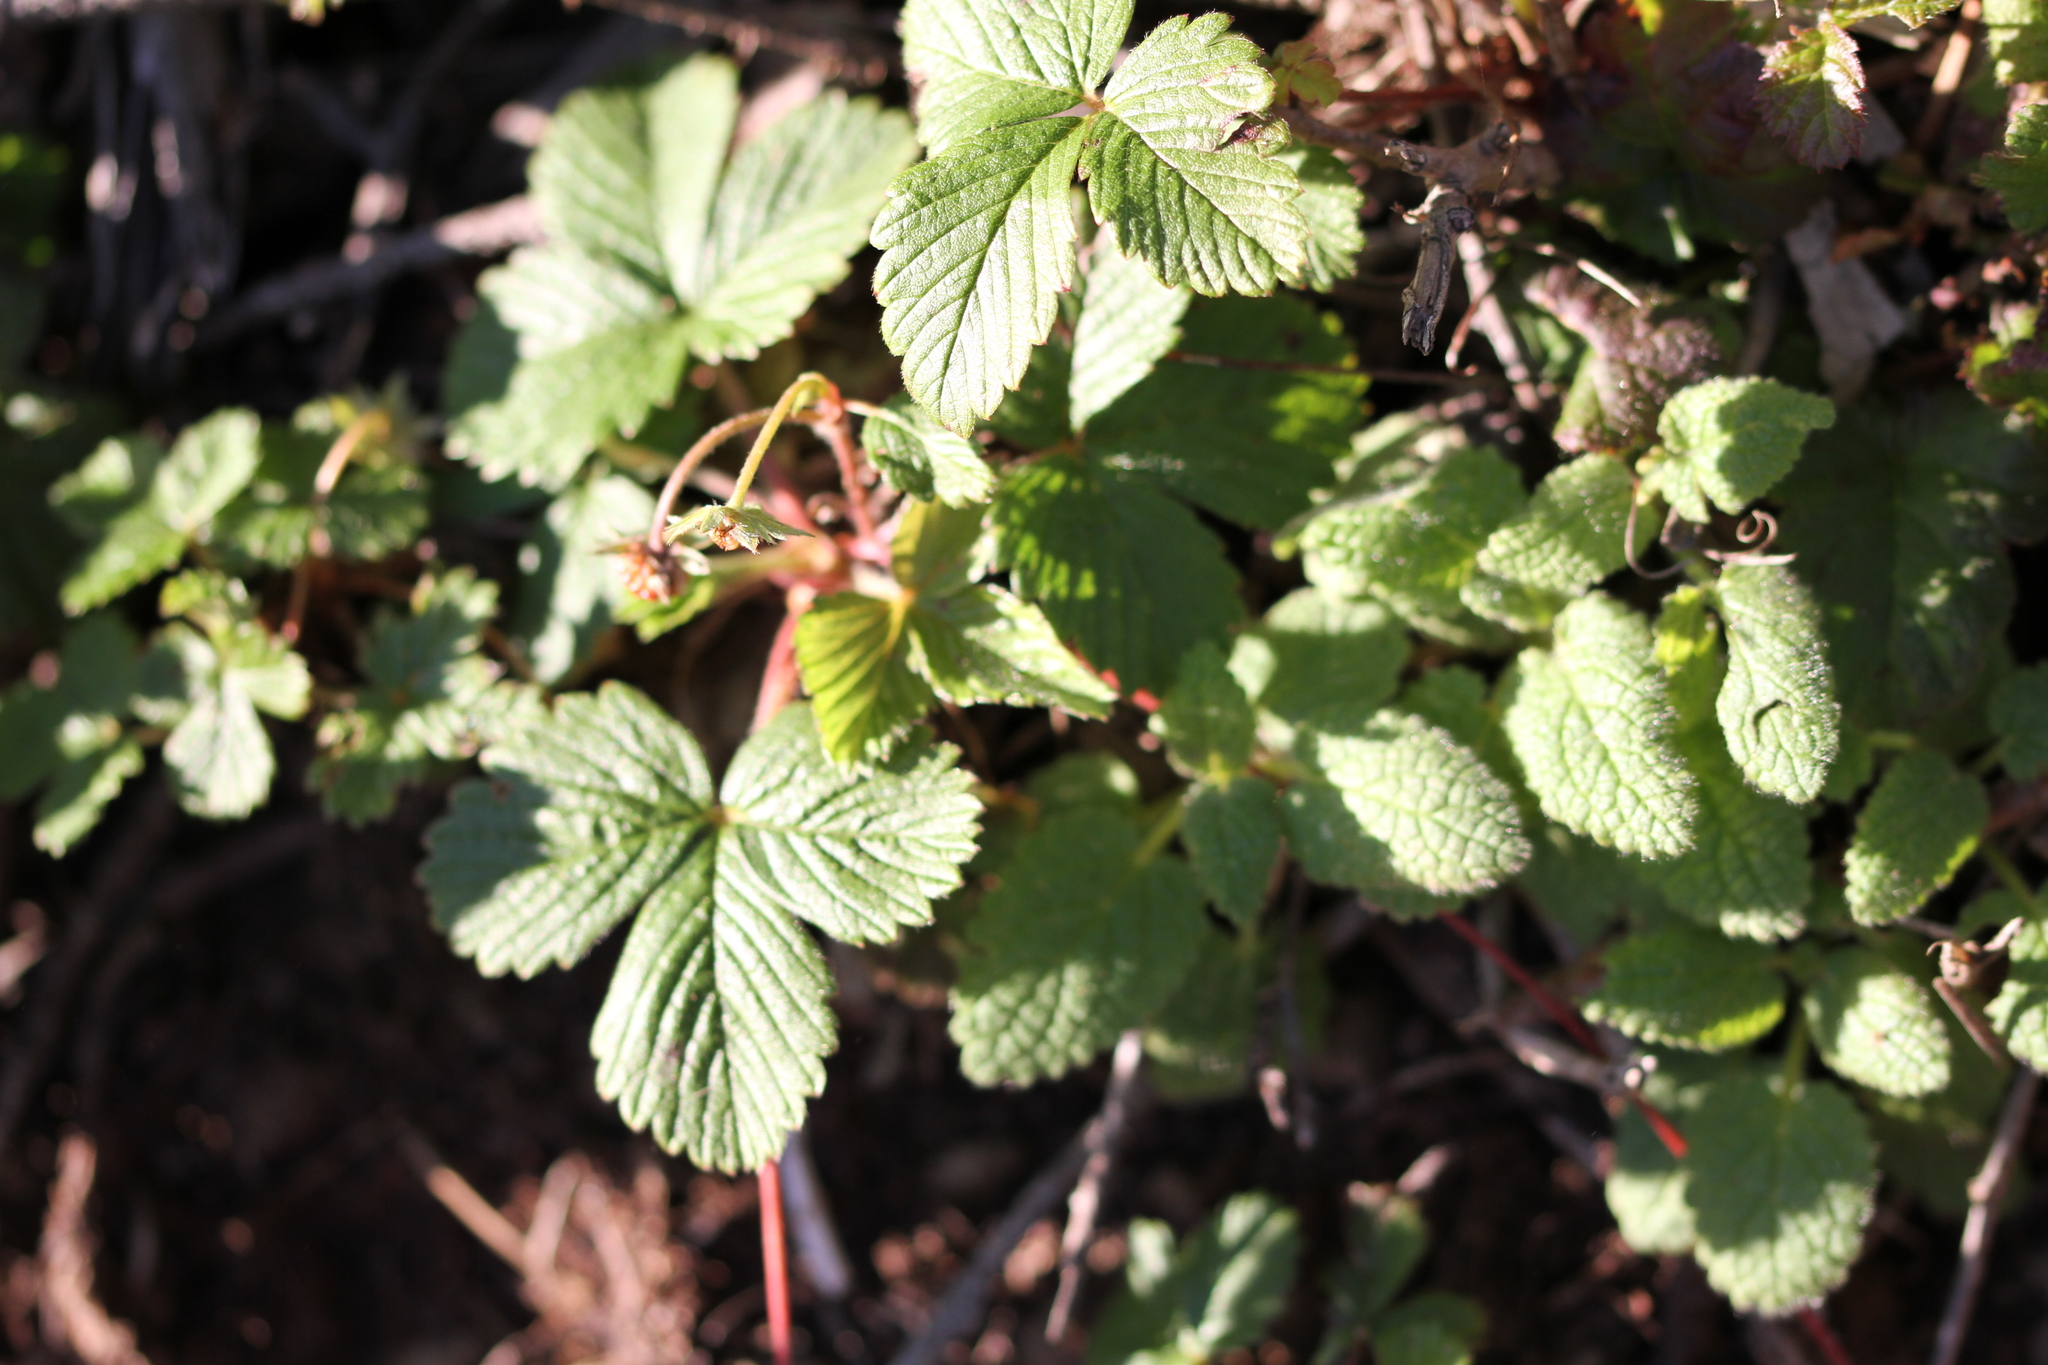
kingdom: Plantae
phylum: Tracheophyta
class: Magnoliopsida
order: Rosales
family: Rosaceae
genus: Fragaria
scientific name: Fragaria vesca
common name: Wild strawberry
